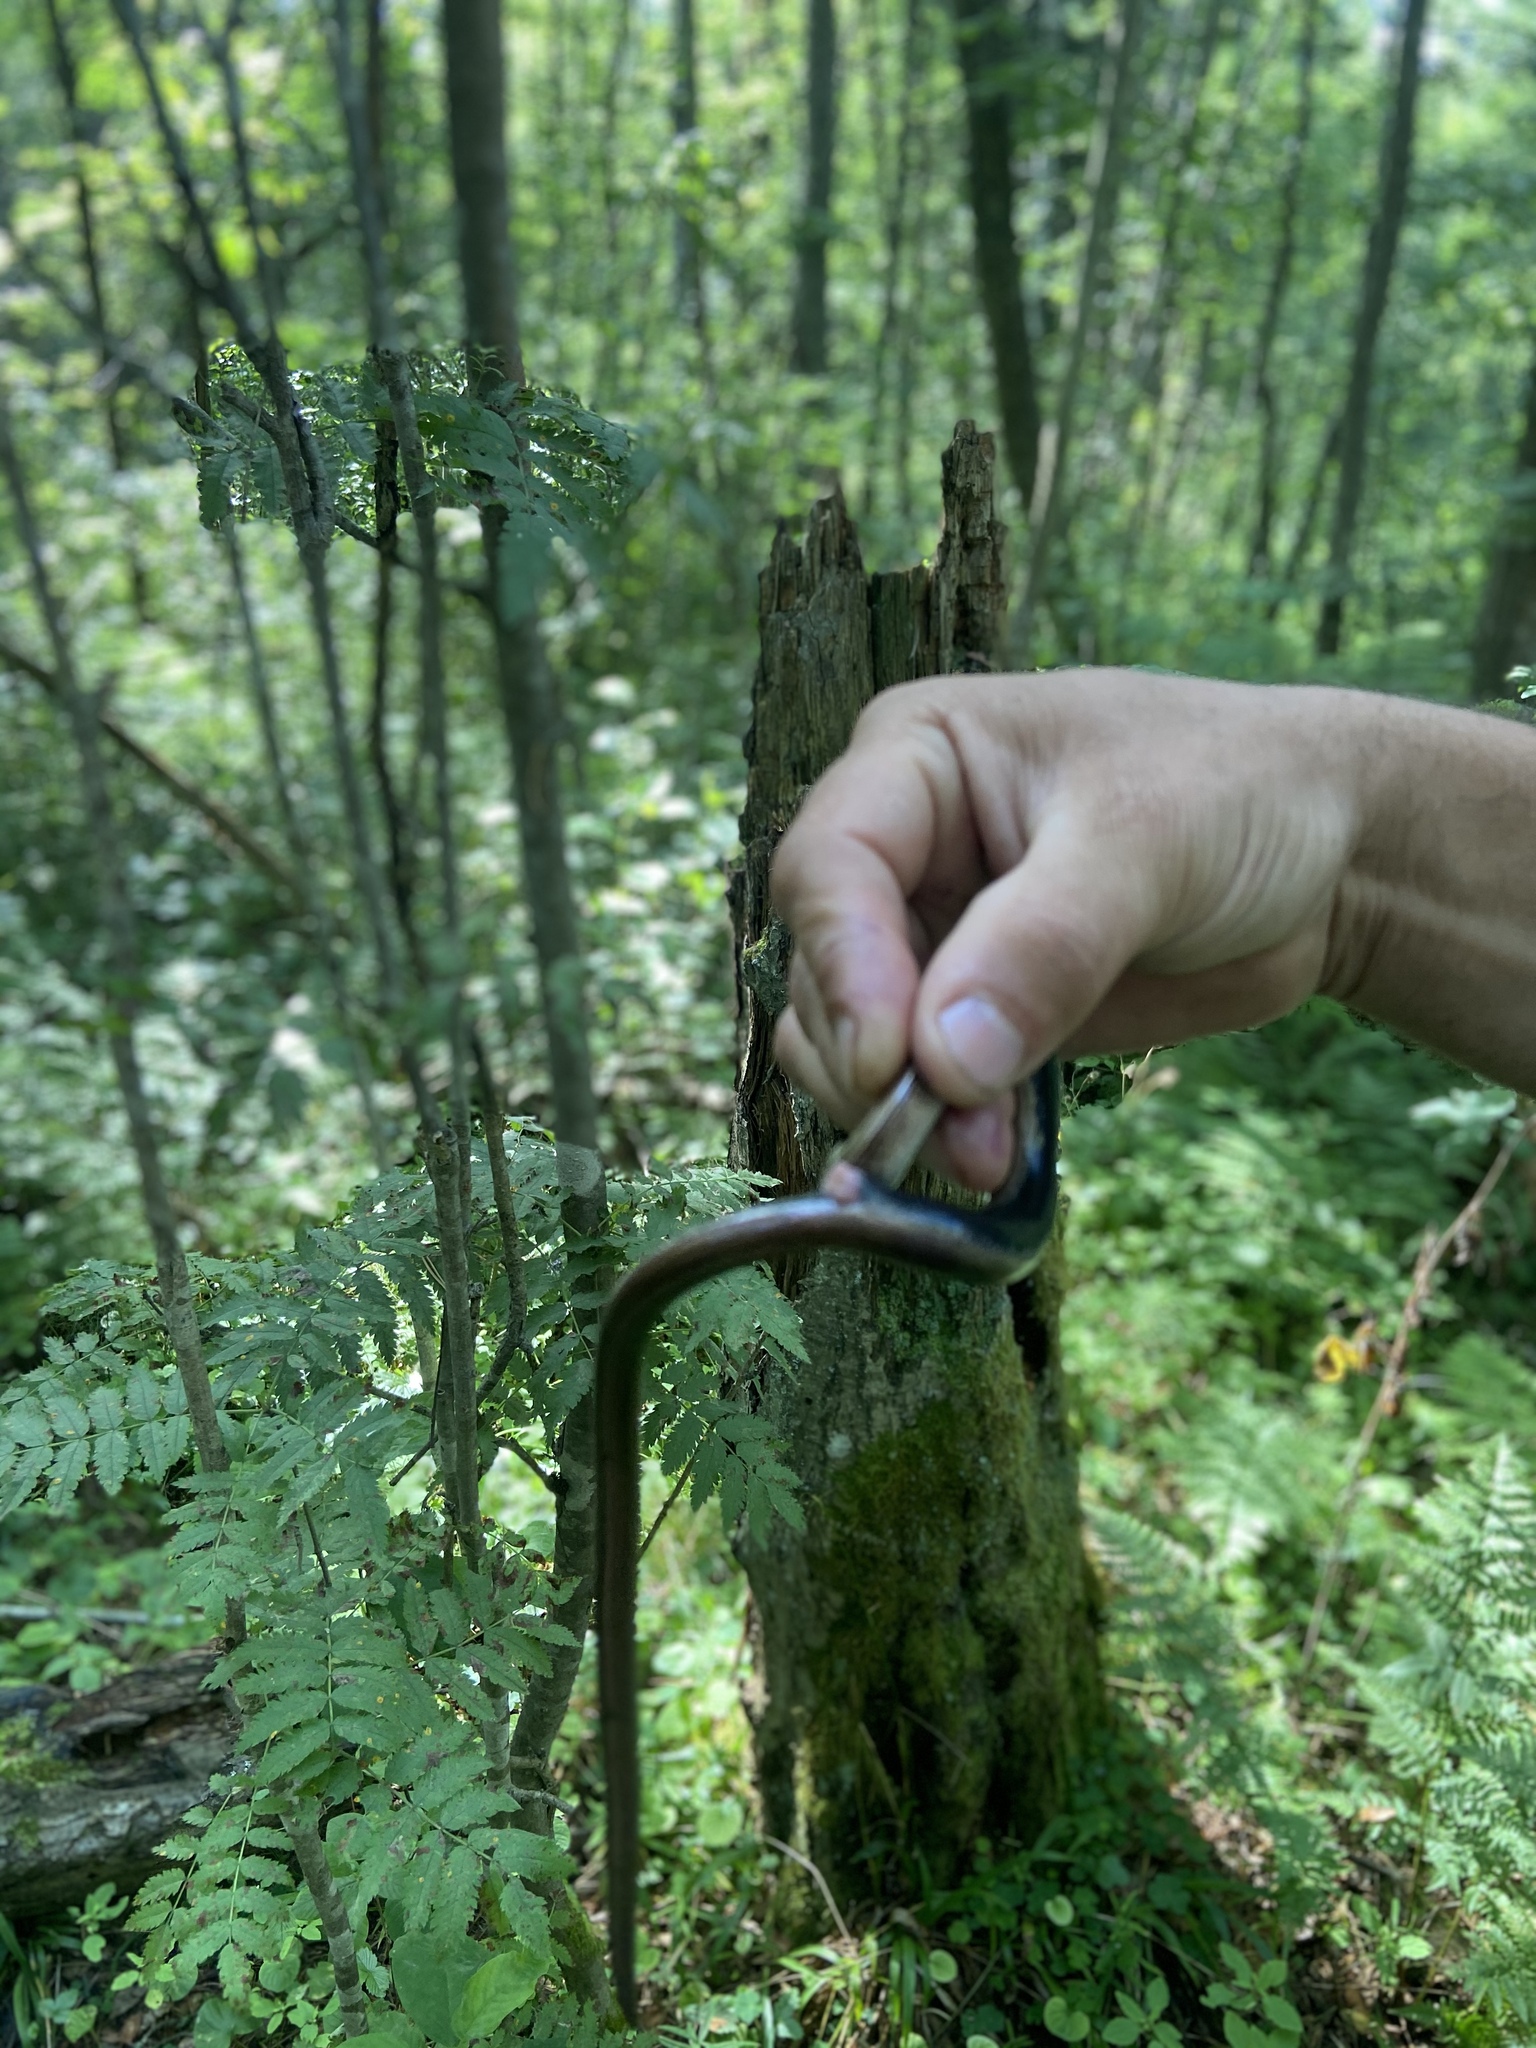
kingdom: Animalia
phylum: Chordata
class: Squamata
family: Anguidae
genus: Anguis
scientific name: Anguis colchica
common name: Slow worm
